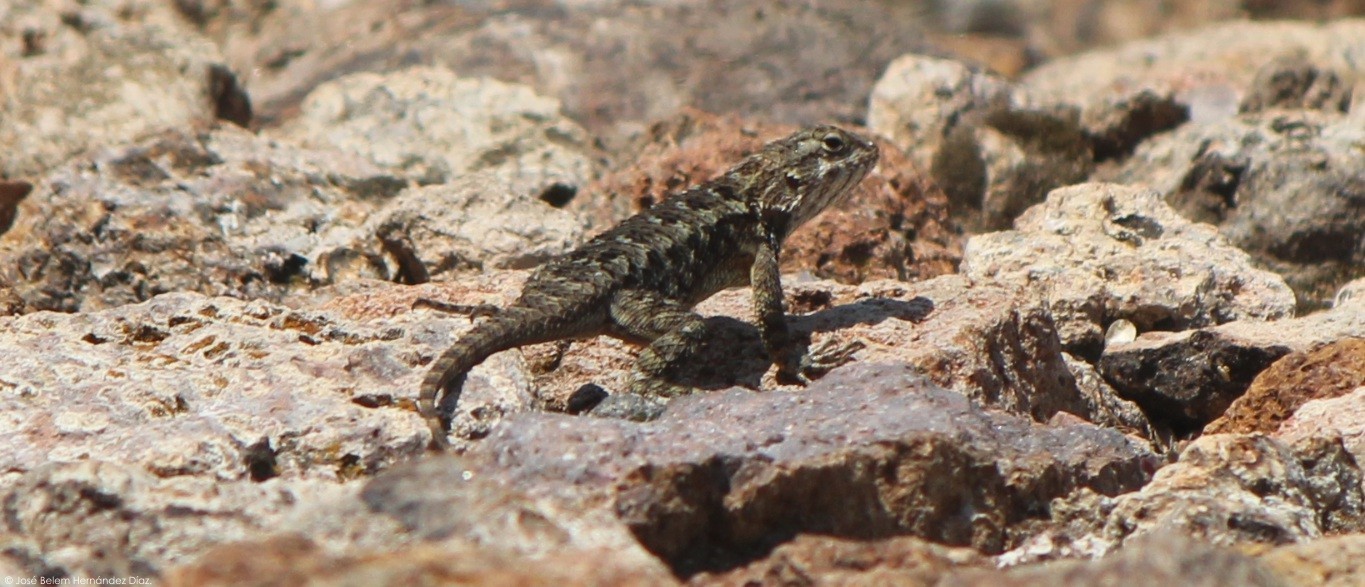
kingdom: Animalia
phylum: Chordata
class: Squamata
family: Phrynosomatidae
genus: Sceloporus
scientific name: Sceloporus spinosus
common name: Blue-spotted spiny lizard [caeruleopunctatus]
